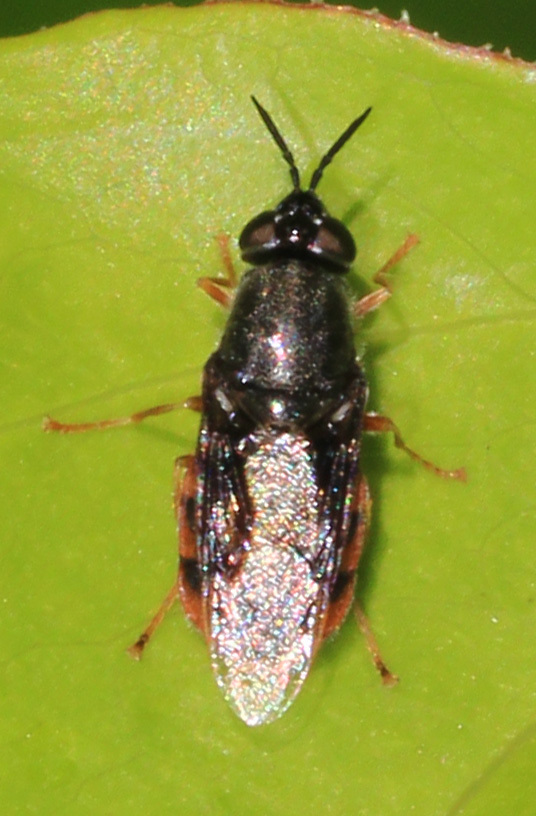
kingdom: Animalia
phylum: Arthropoda
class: Insecta
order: Diptera
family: Stratiomyidae
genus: Odontomyia
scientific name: Odontomyia profuscata
